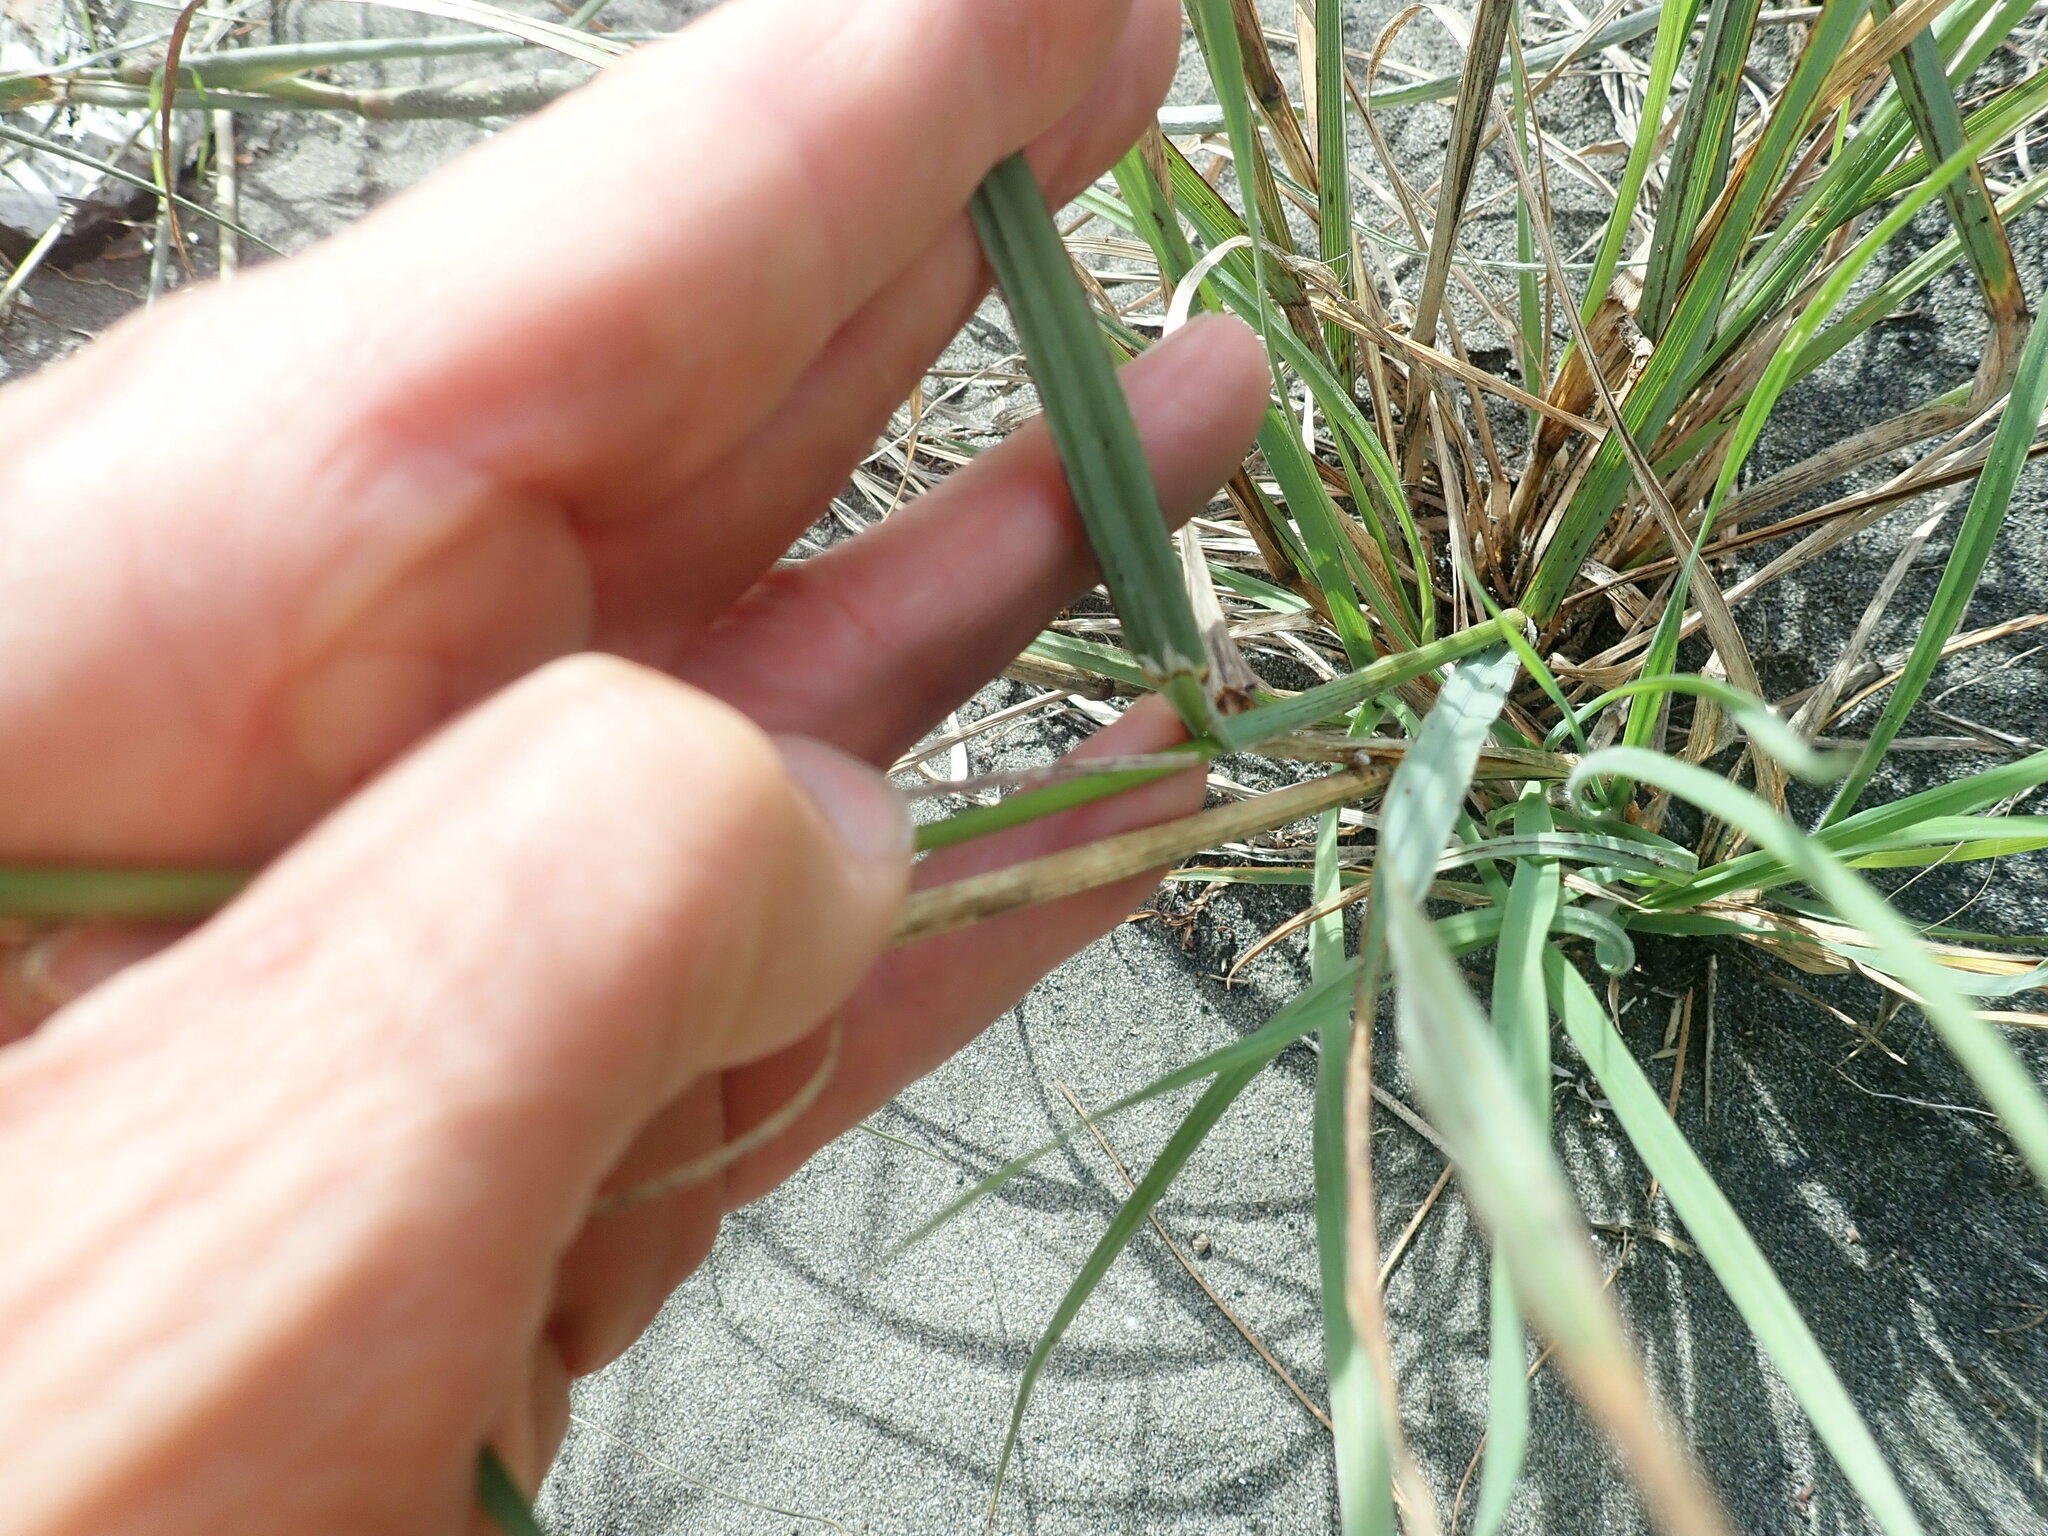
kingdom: Plantae
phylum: Tracheophyta
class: Liliopsida
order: Poales
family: Poaceae
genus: Bromus
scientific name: Bromus catharticus
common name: Rescuegrass
